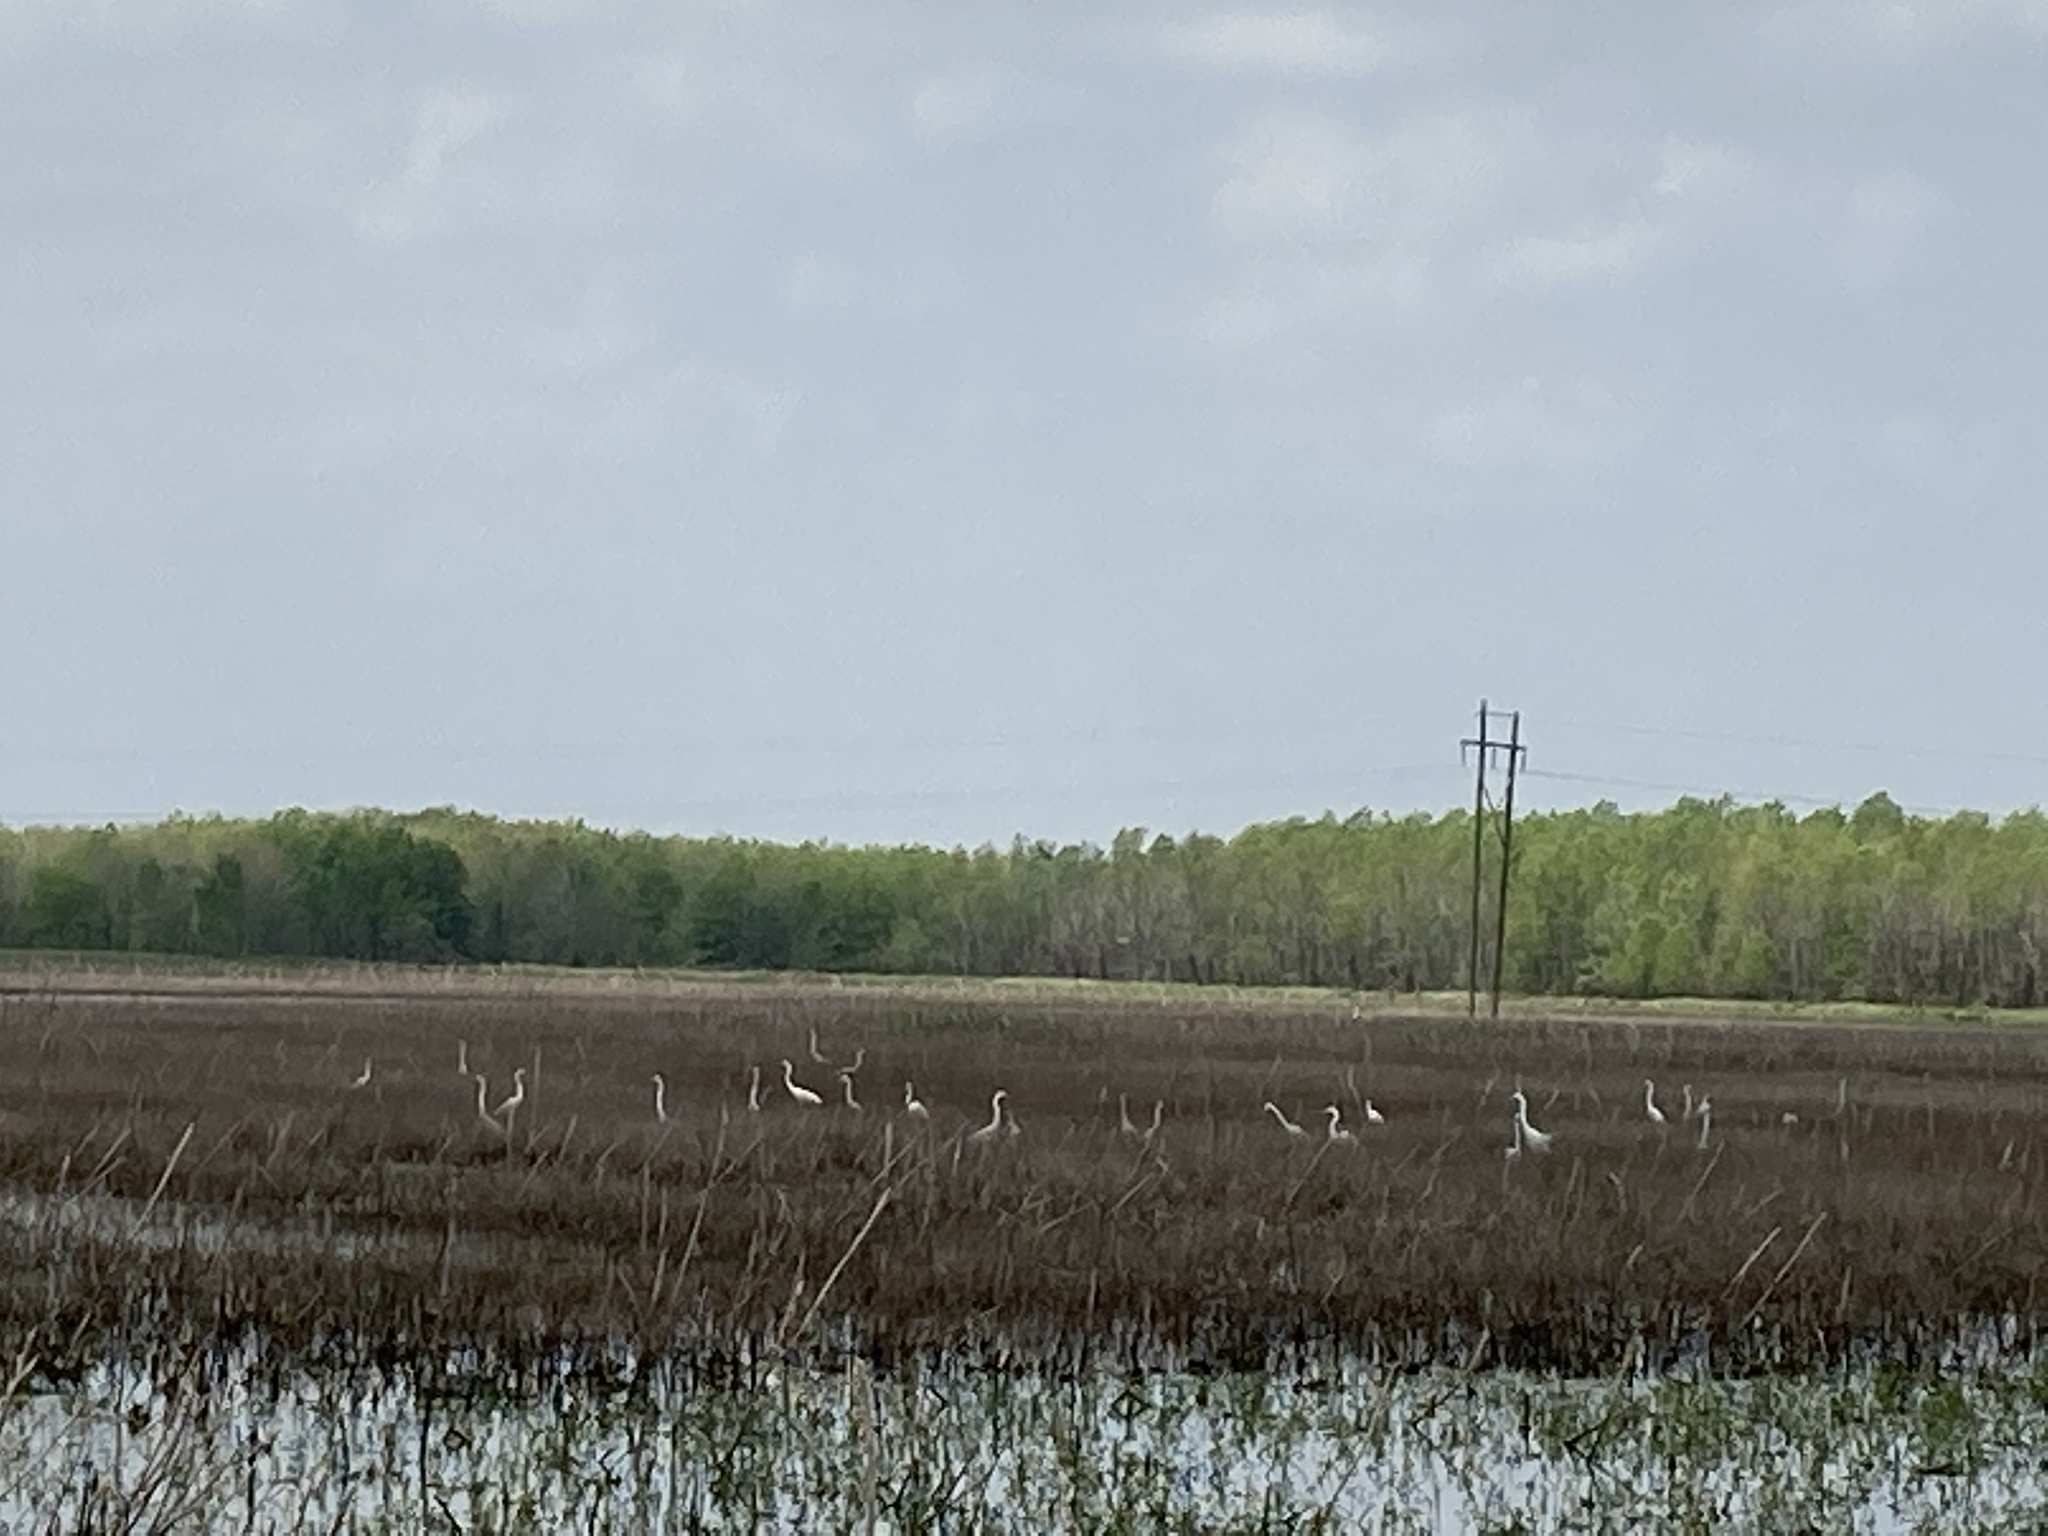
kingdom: Animalia
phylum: Chordata
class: Aves
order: Pelecaniformes
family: Ardeidae
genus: Ardea
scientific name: Ardea alba
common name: Great egret
